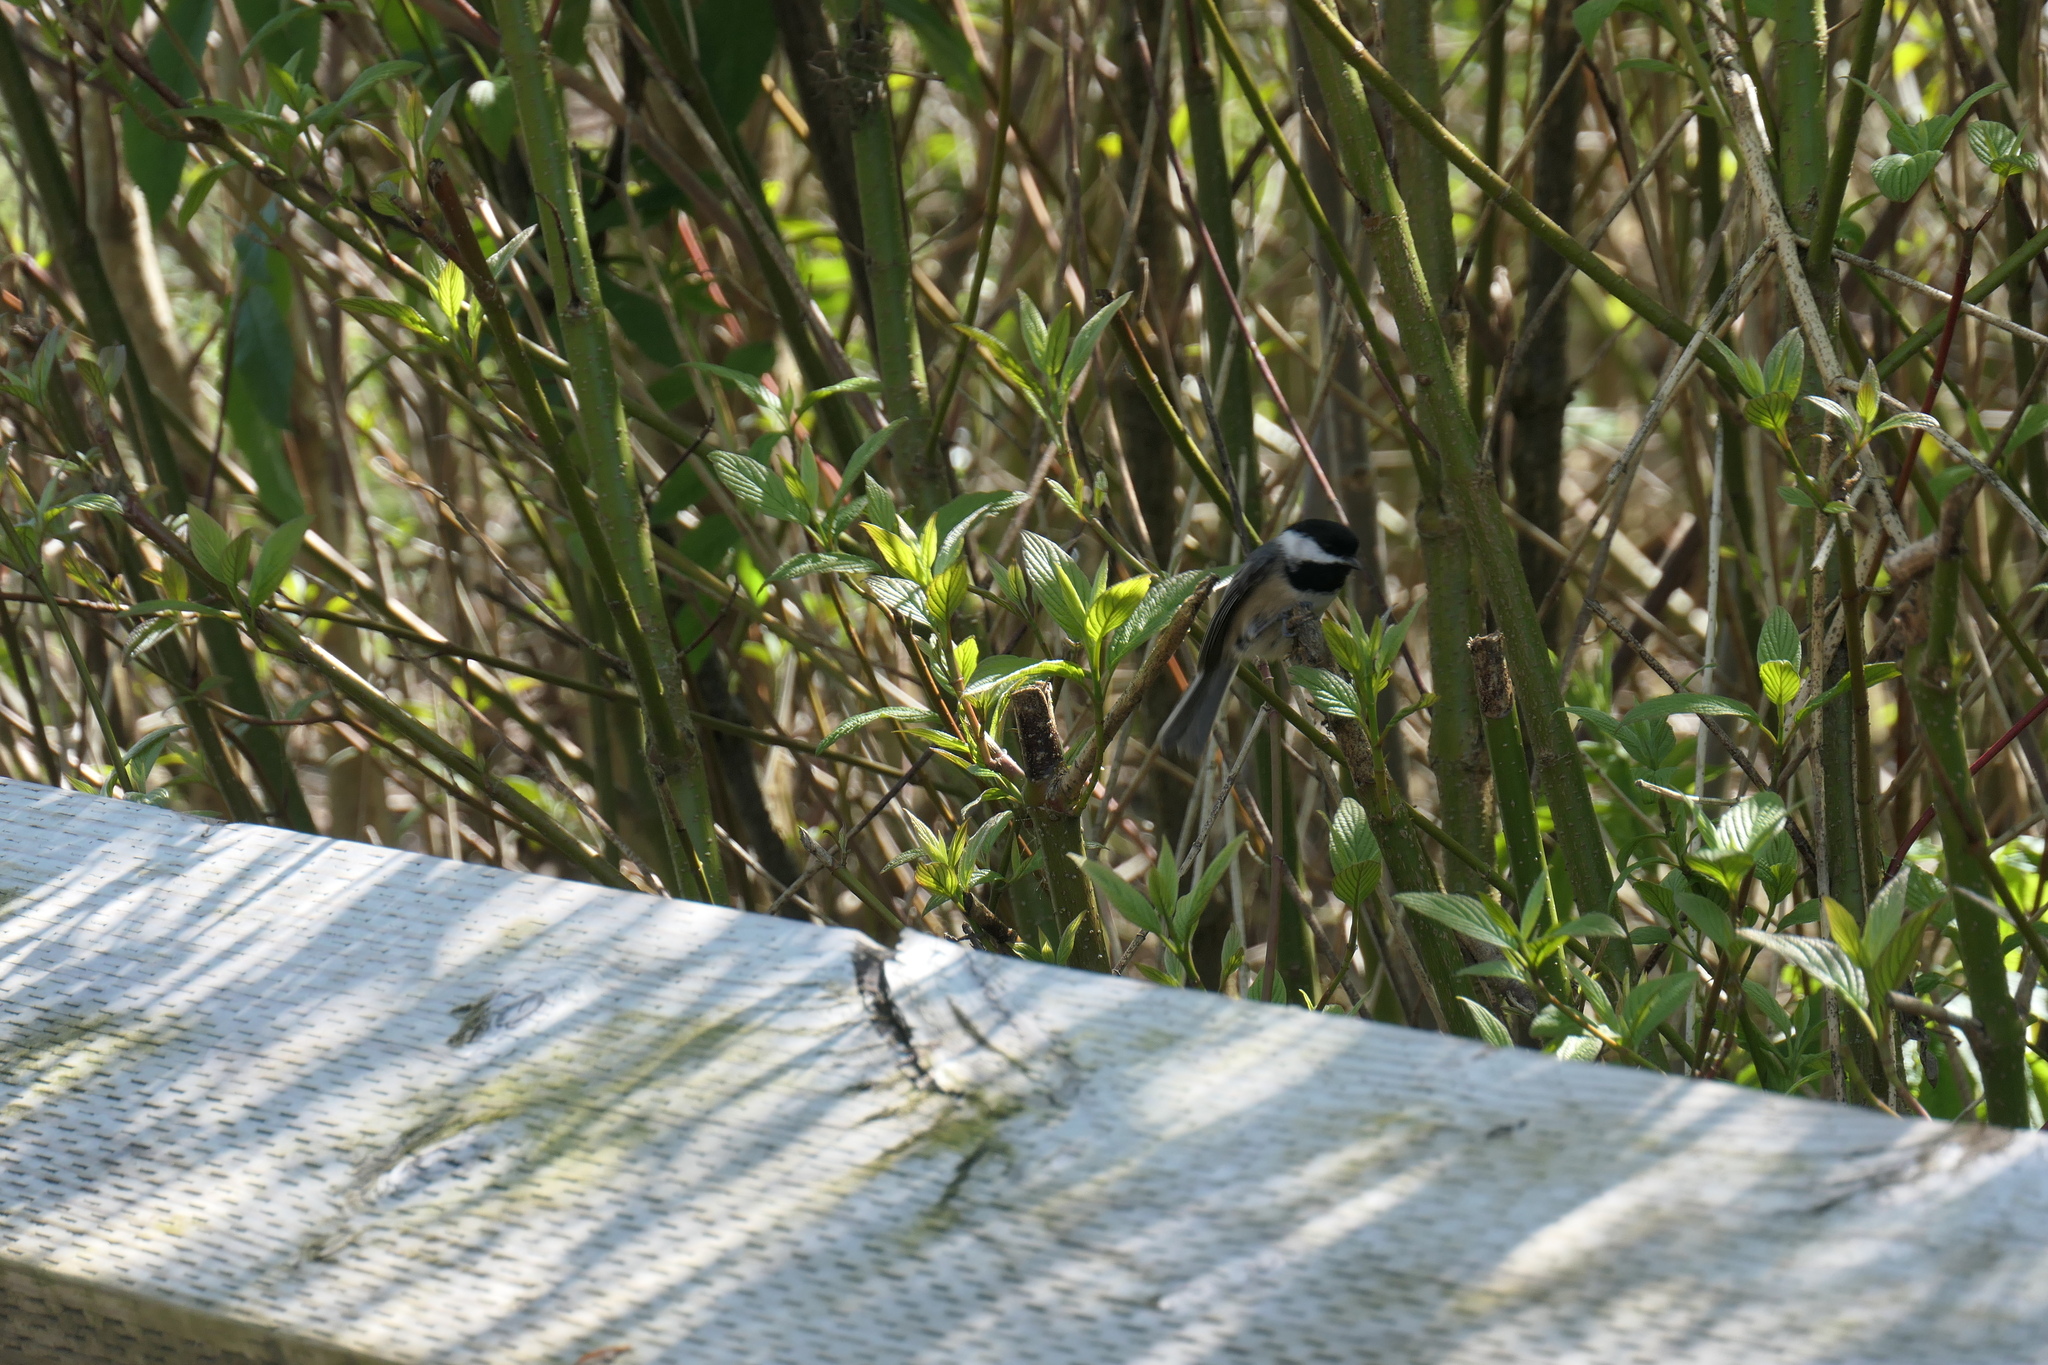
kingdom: Animalia
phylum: Chordata
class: Aves
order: Passeriformes
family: Paridae
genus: Poecile
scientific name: Poecile atricapillus
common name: Black-capped chickadee
